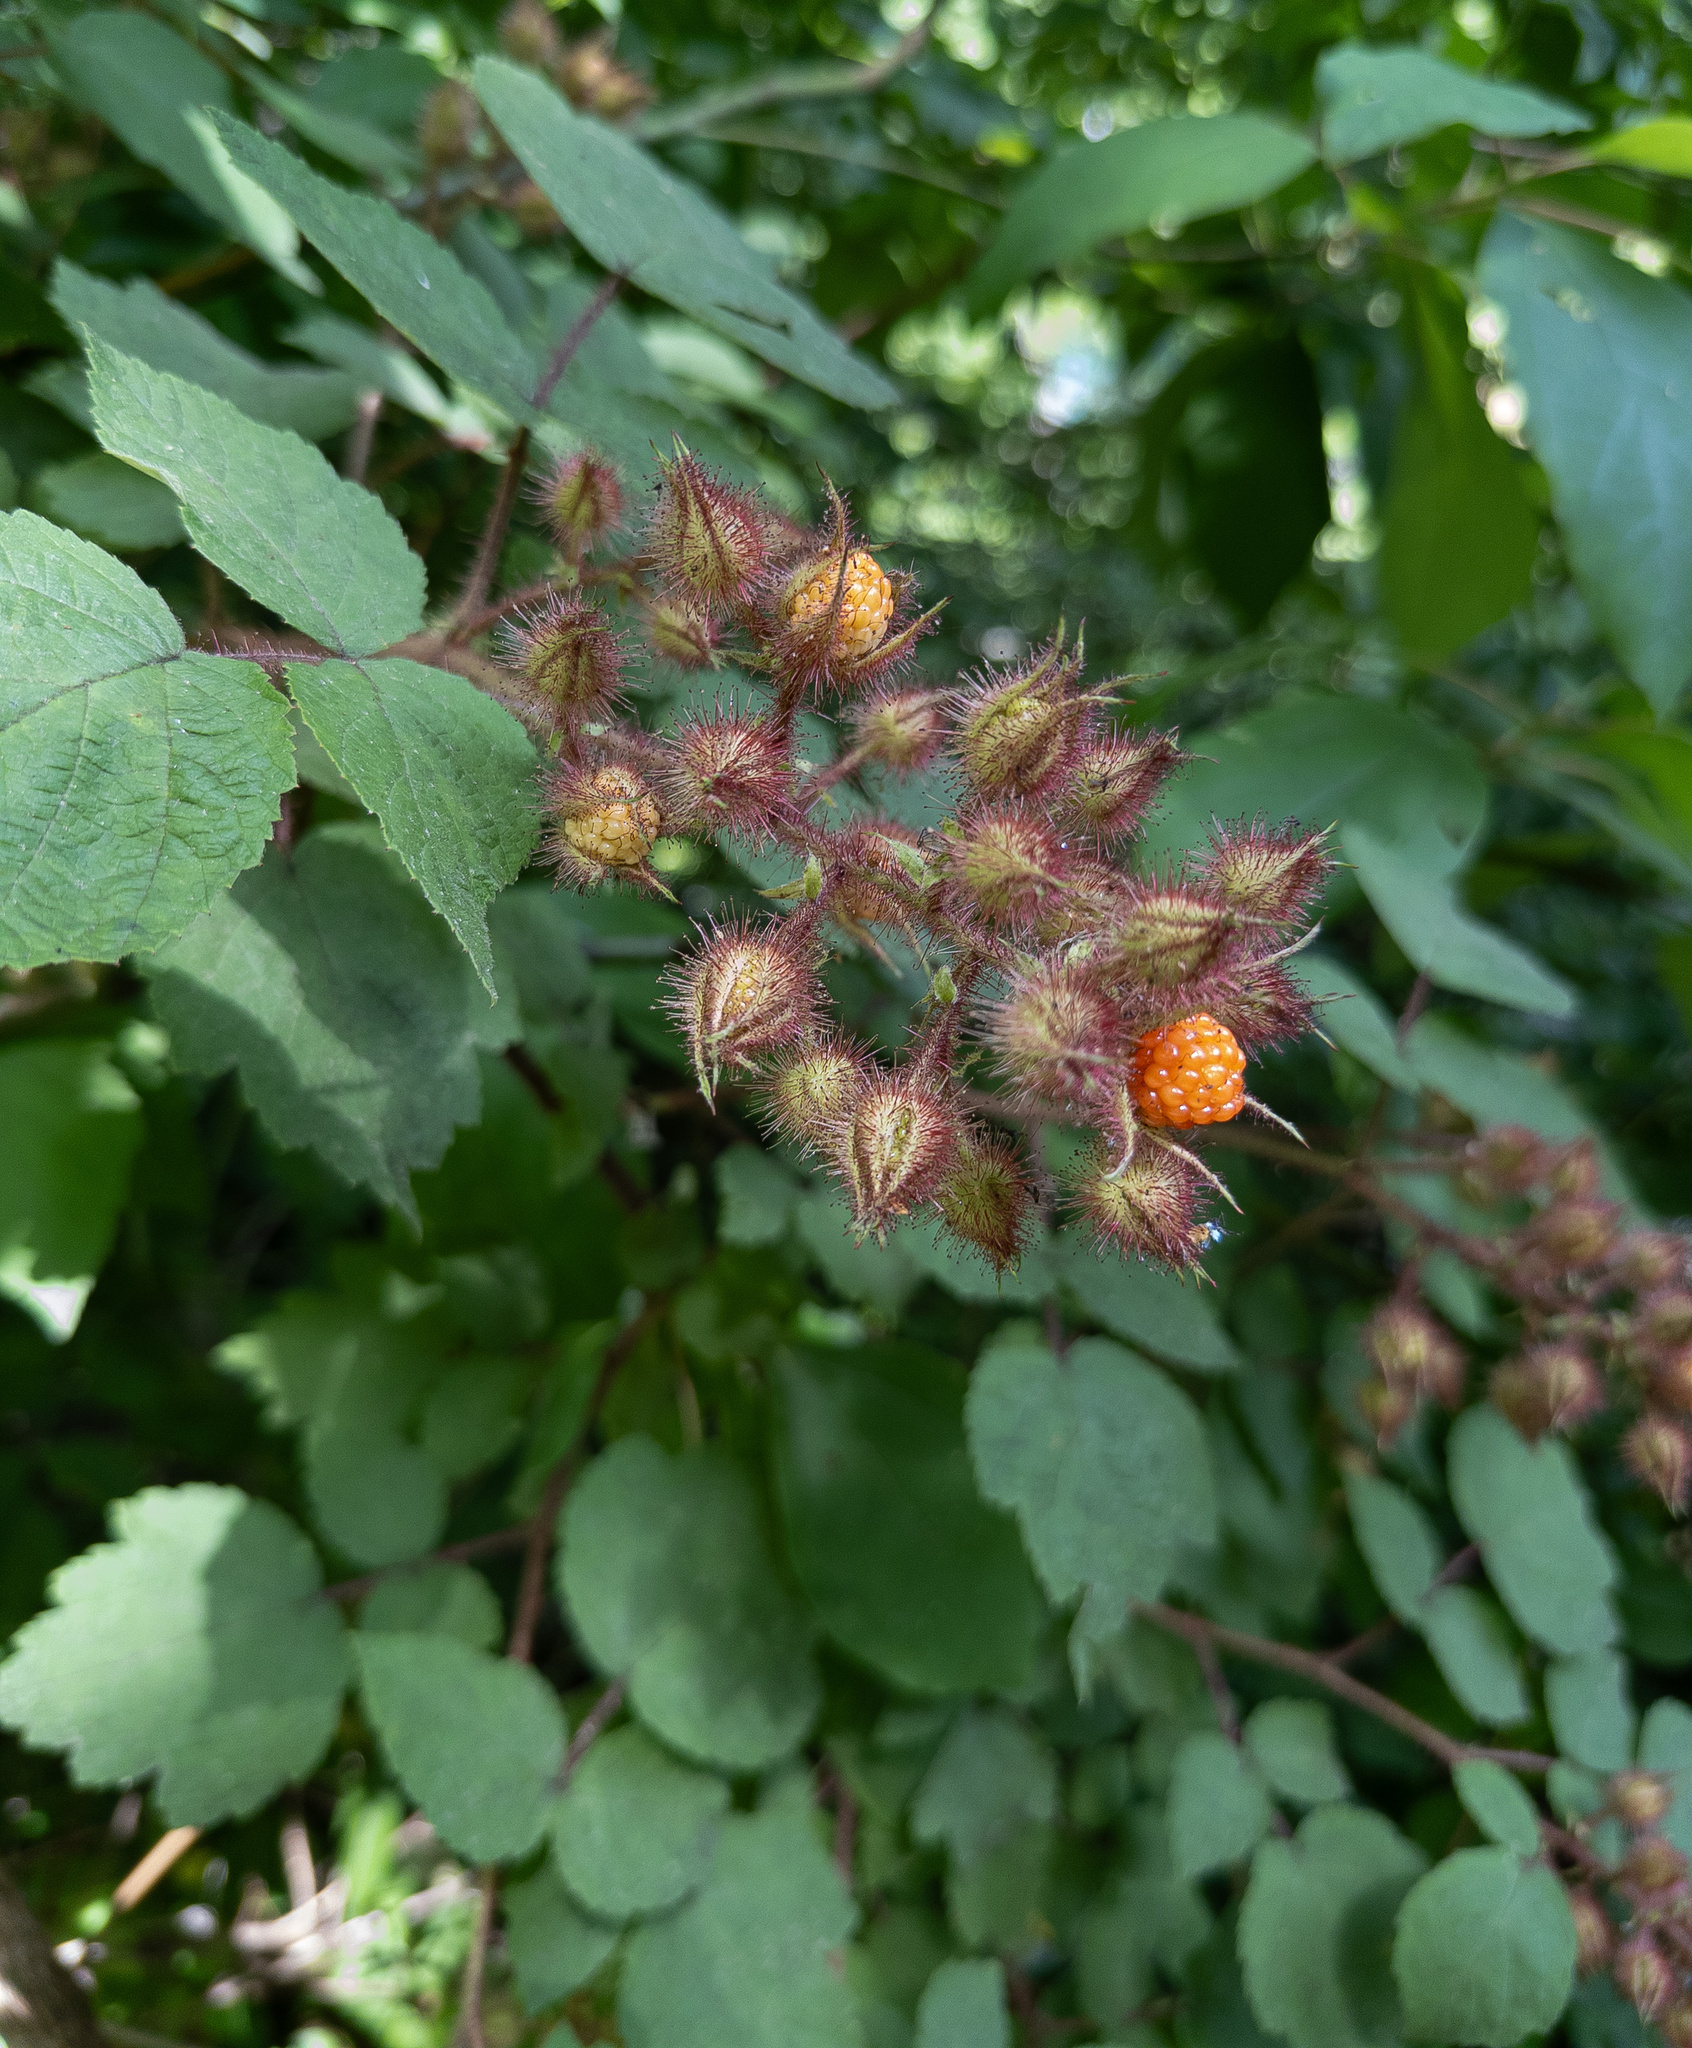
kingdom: Plantae
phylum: Tracheophyta
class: Magnoliopsida
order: Rosales
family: Rosaceae
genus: Rubus
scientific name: Rubus phoenicolasius
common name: Japanese wineberry
